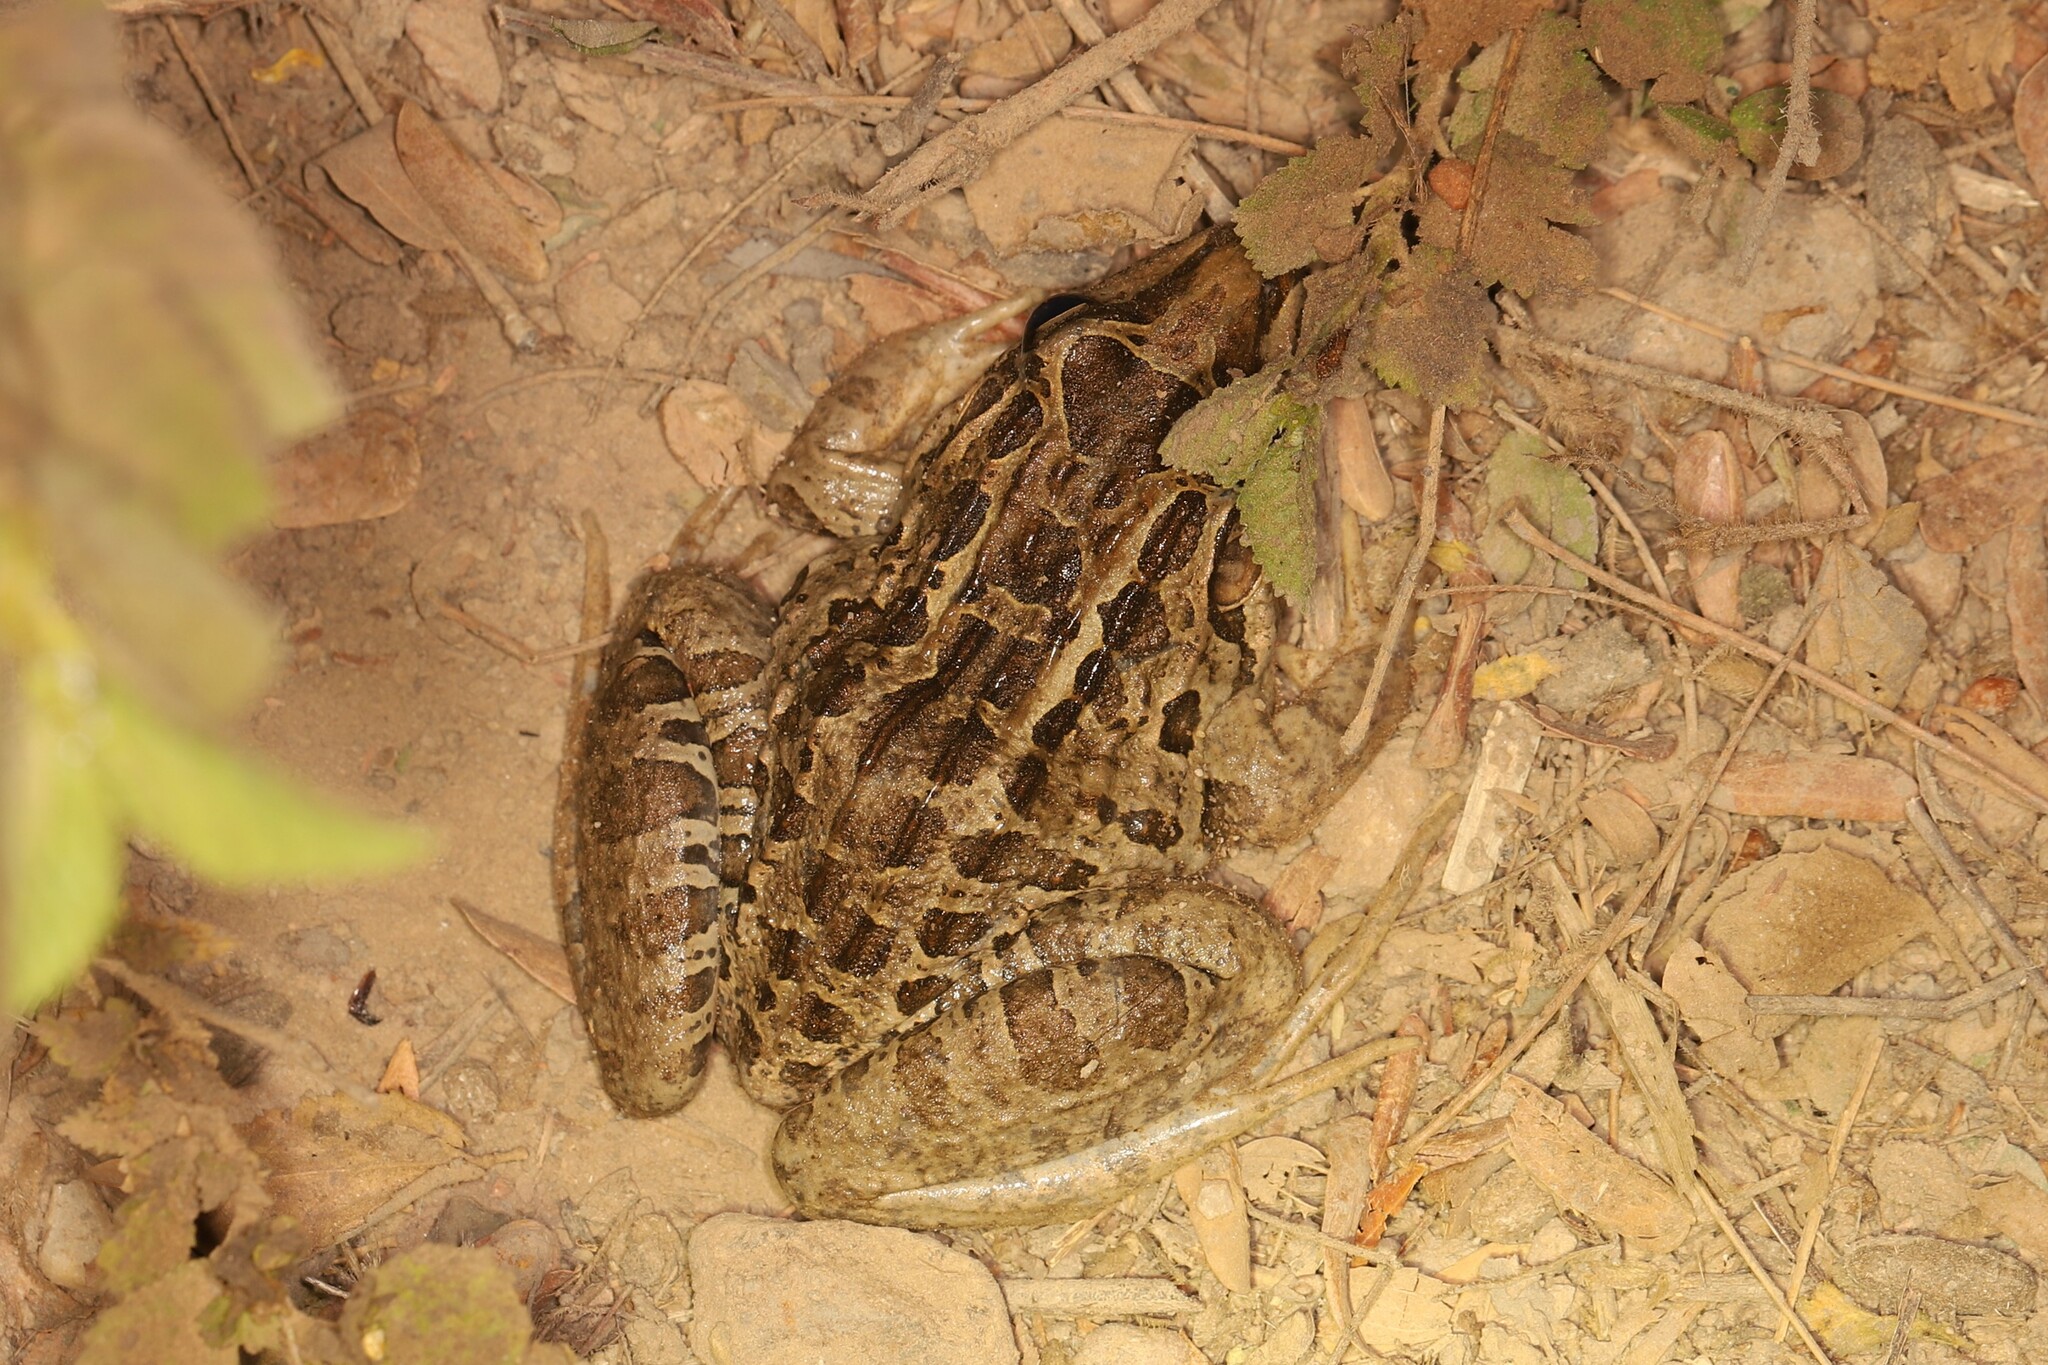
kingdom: Animalia
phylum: Chordata
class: Amphibia
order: Anura
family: Leptodactylidae
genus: Leptodactylus
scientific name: Leptodactylus macrosternum
